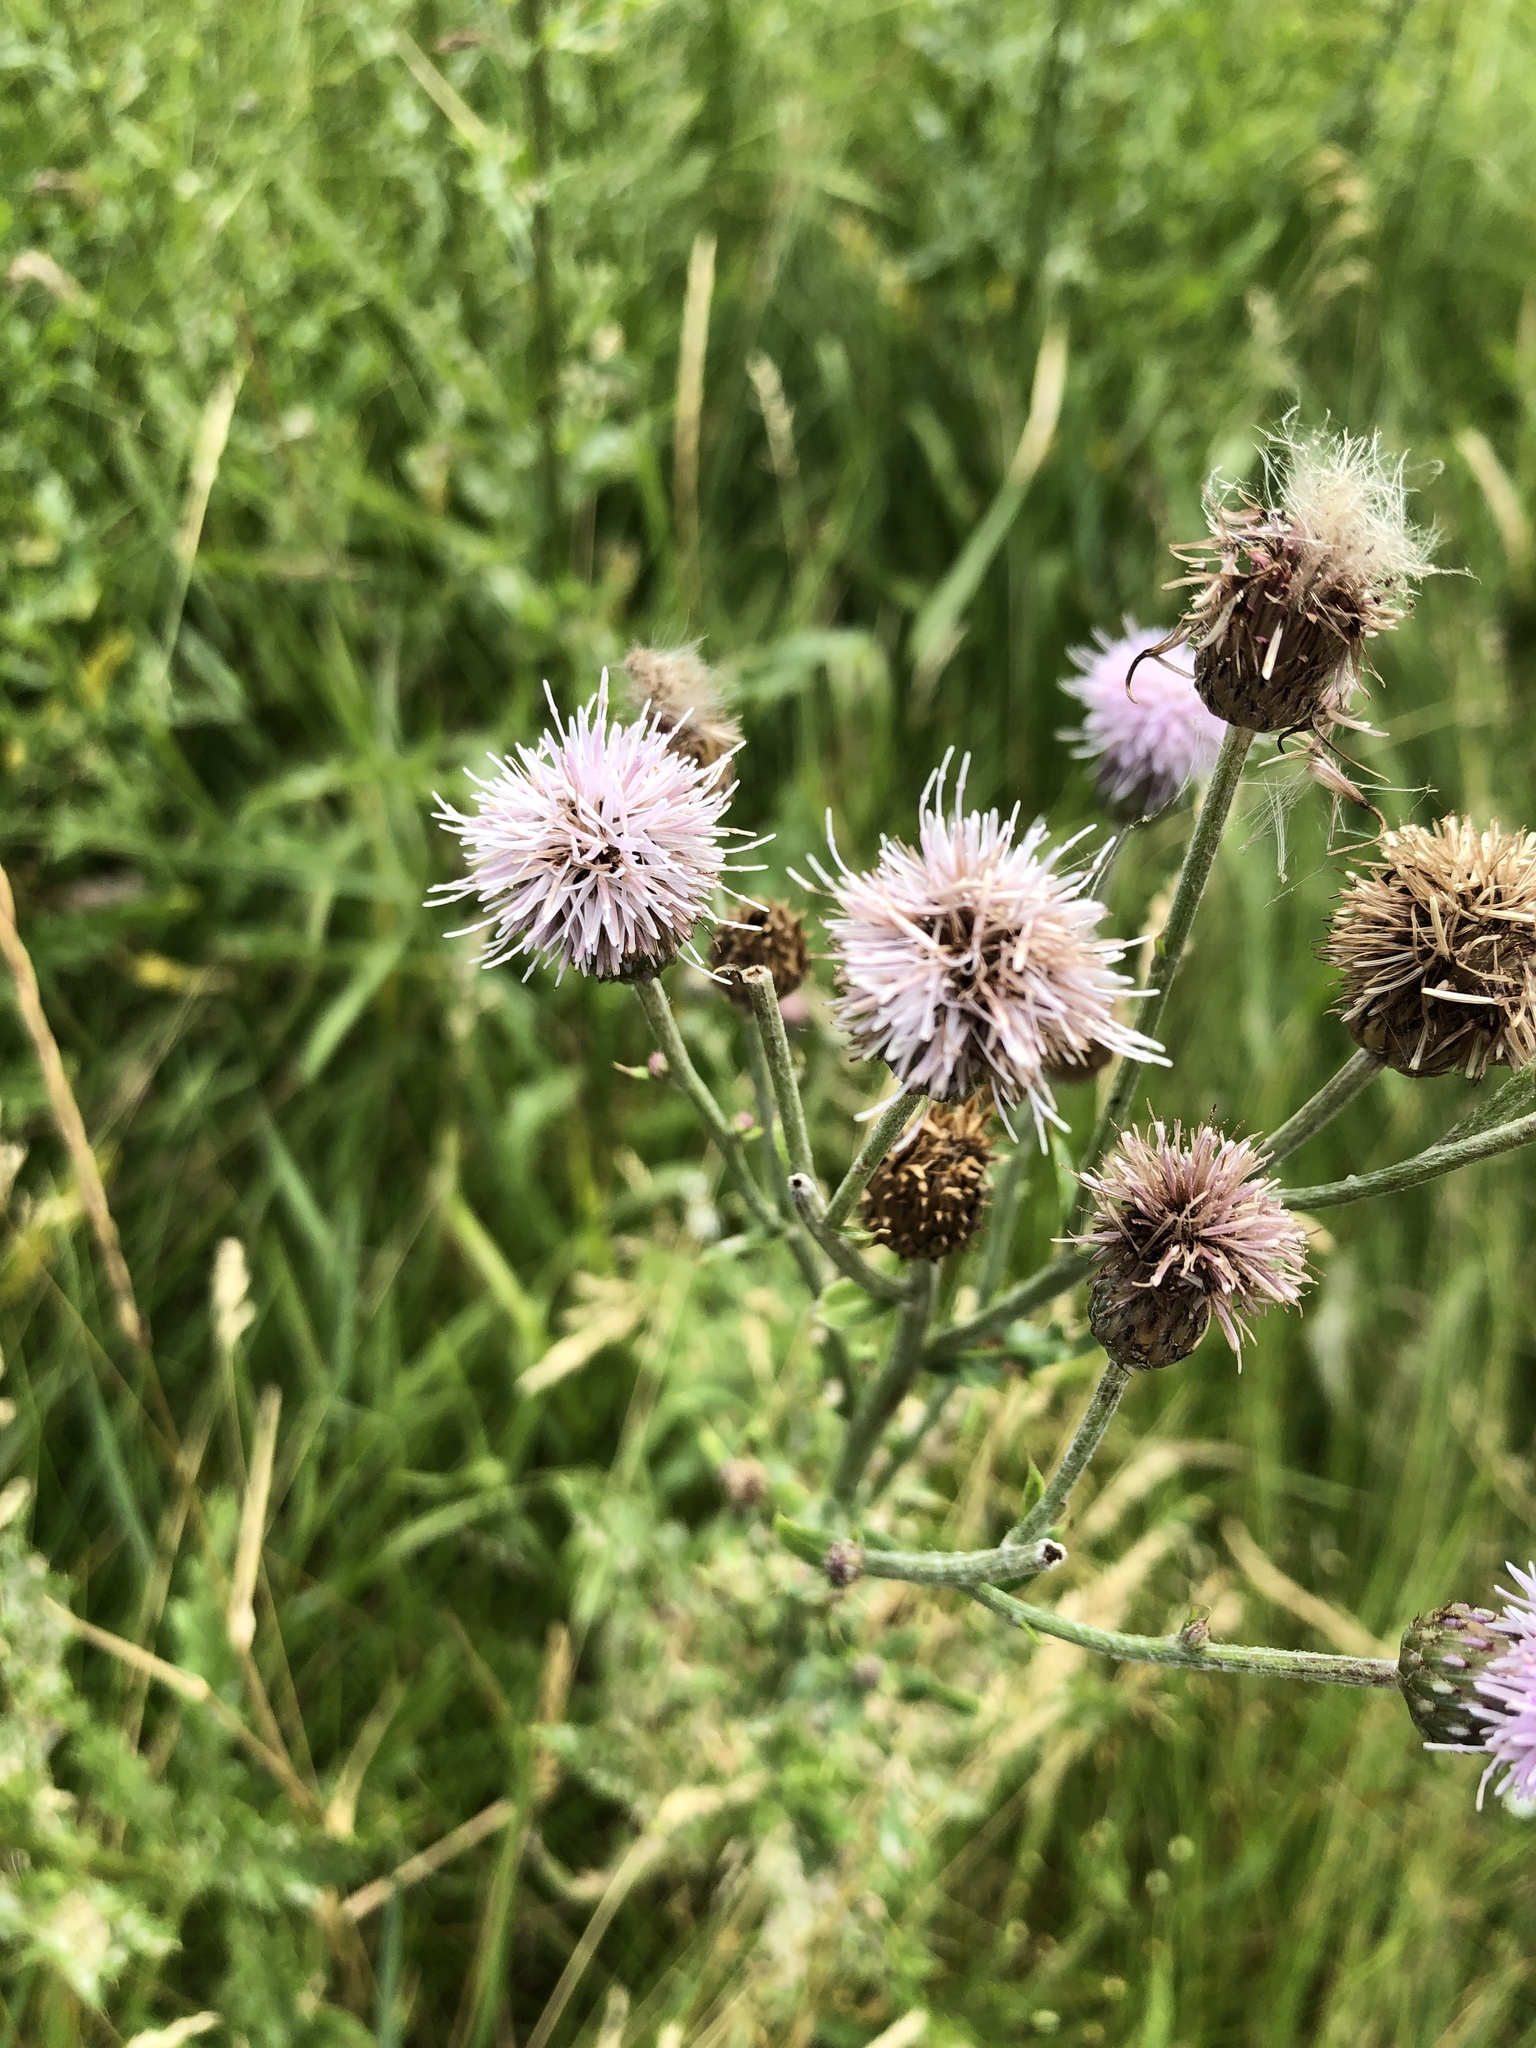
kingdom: Plantae
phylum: Tracheophyta
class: Magnoliopsida
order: Asterales
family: Asteraceae
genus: Cirsium
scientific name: Cirsium arvense
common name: Creeping thistle
